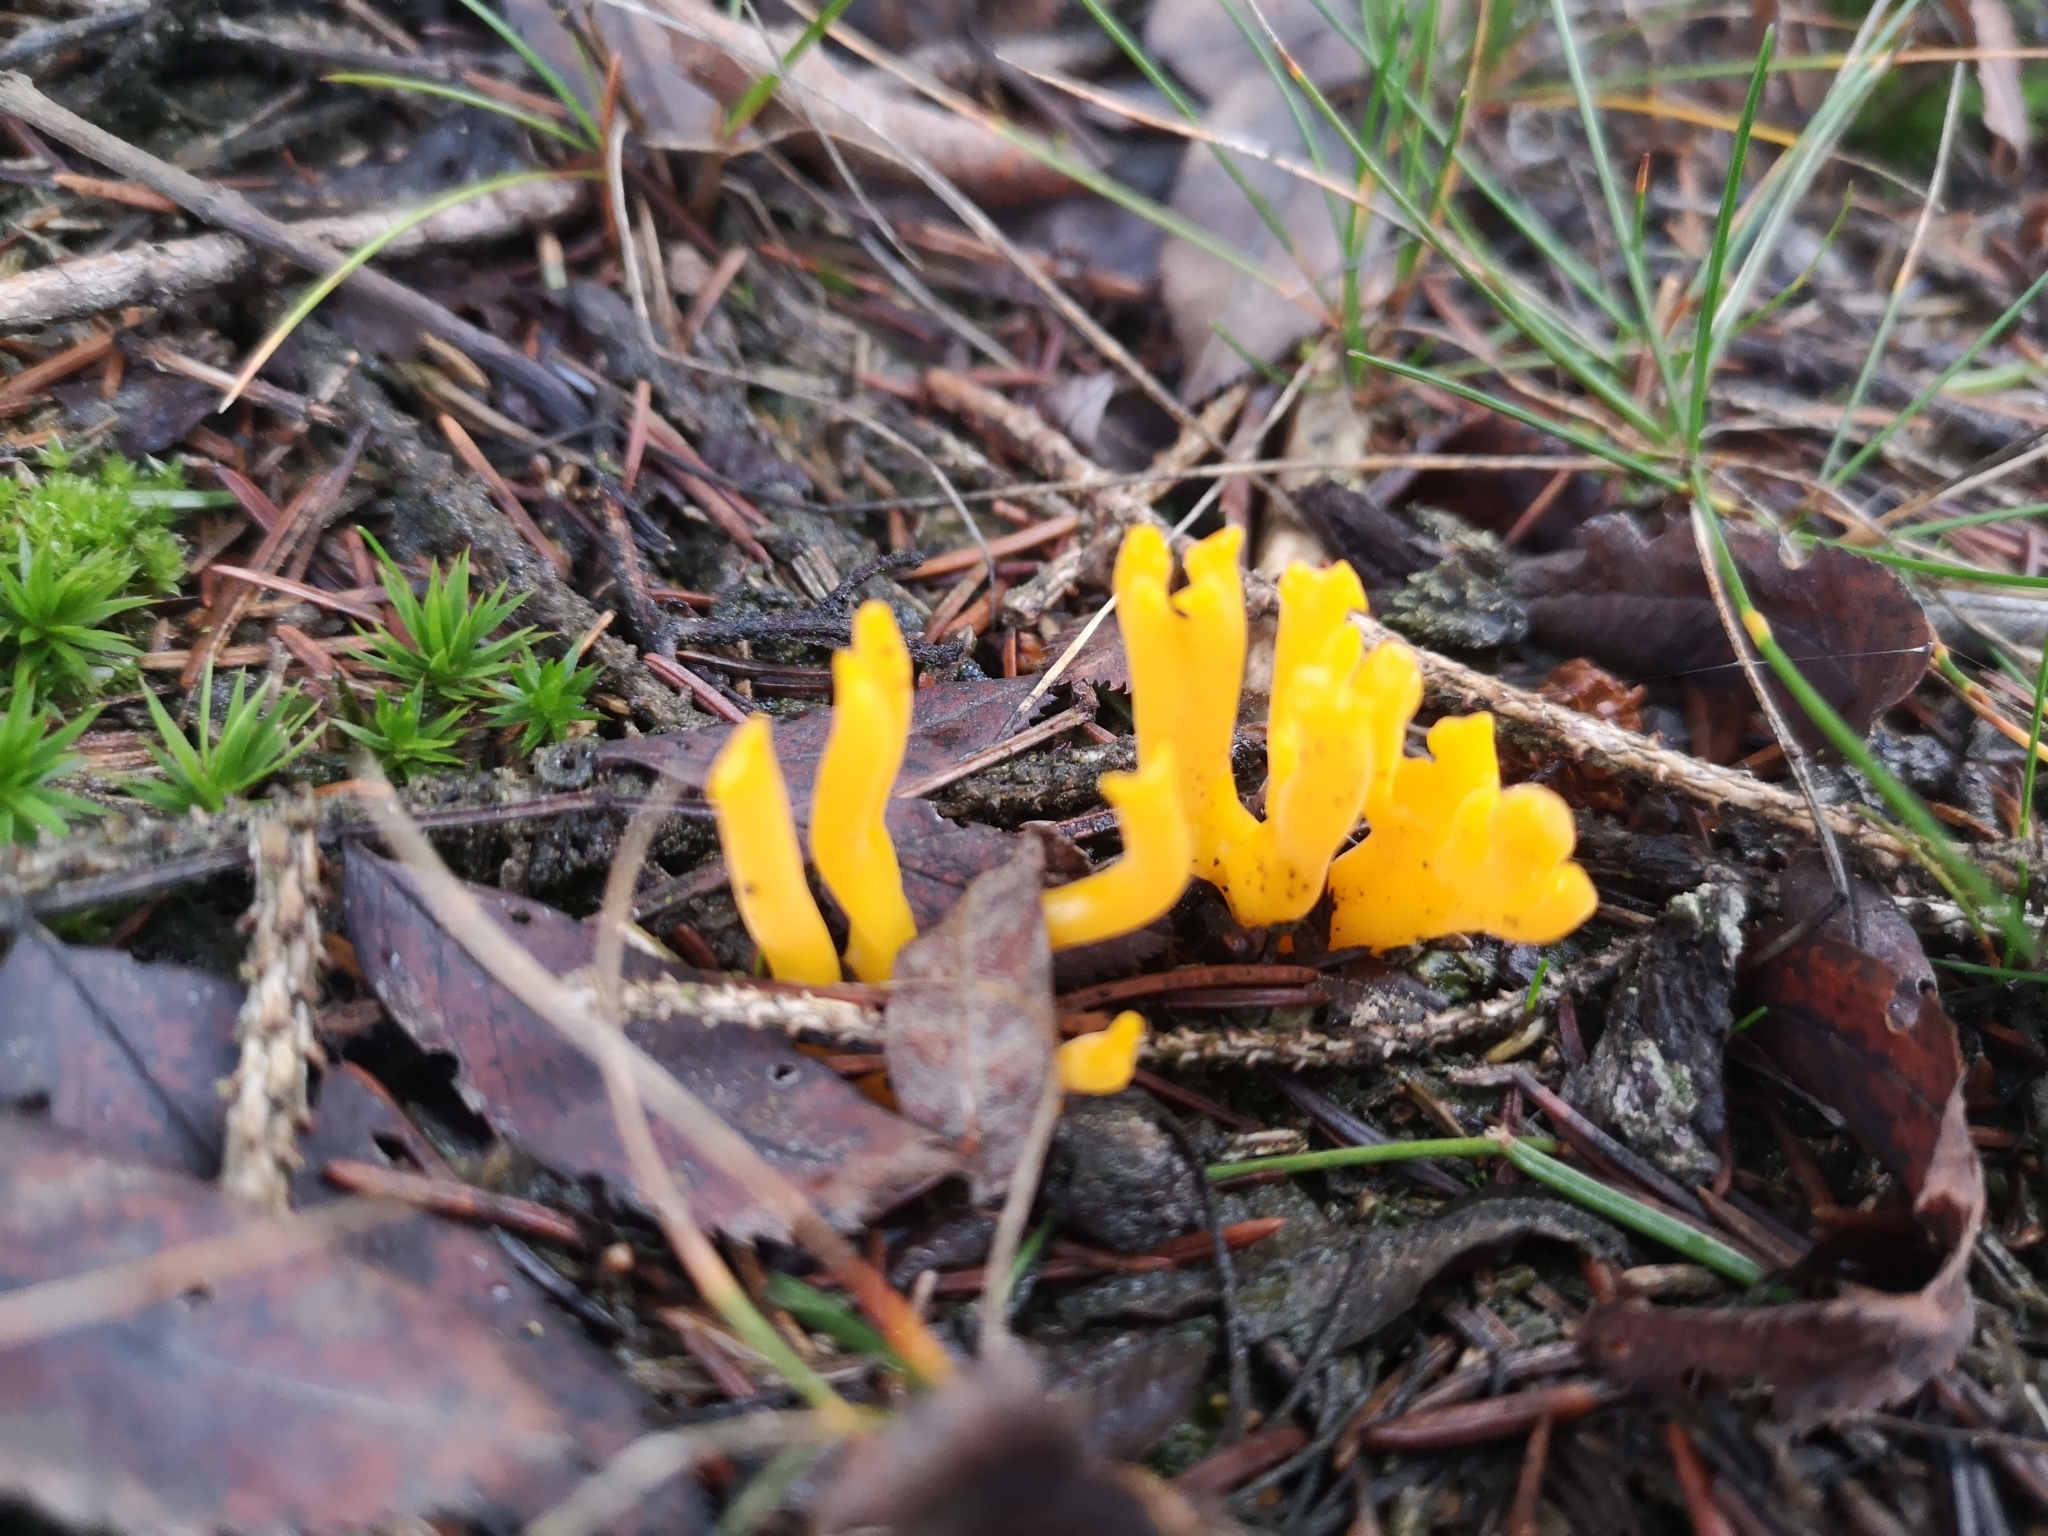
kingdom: Fungi
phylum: Basidiomycota
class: Dacrymycetes
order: Dacrymycetales
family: Dacrymycetaceae
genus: Calocera
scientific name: Calocera viscosa
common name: Yellow stagshorn
